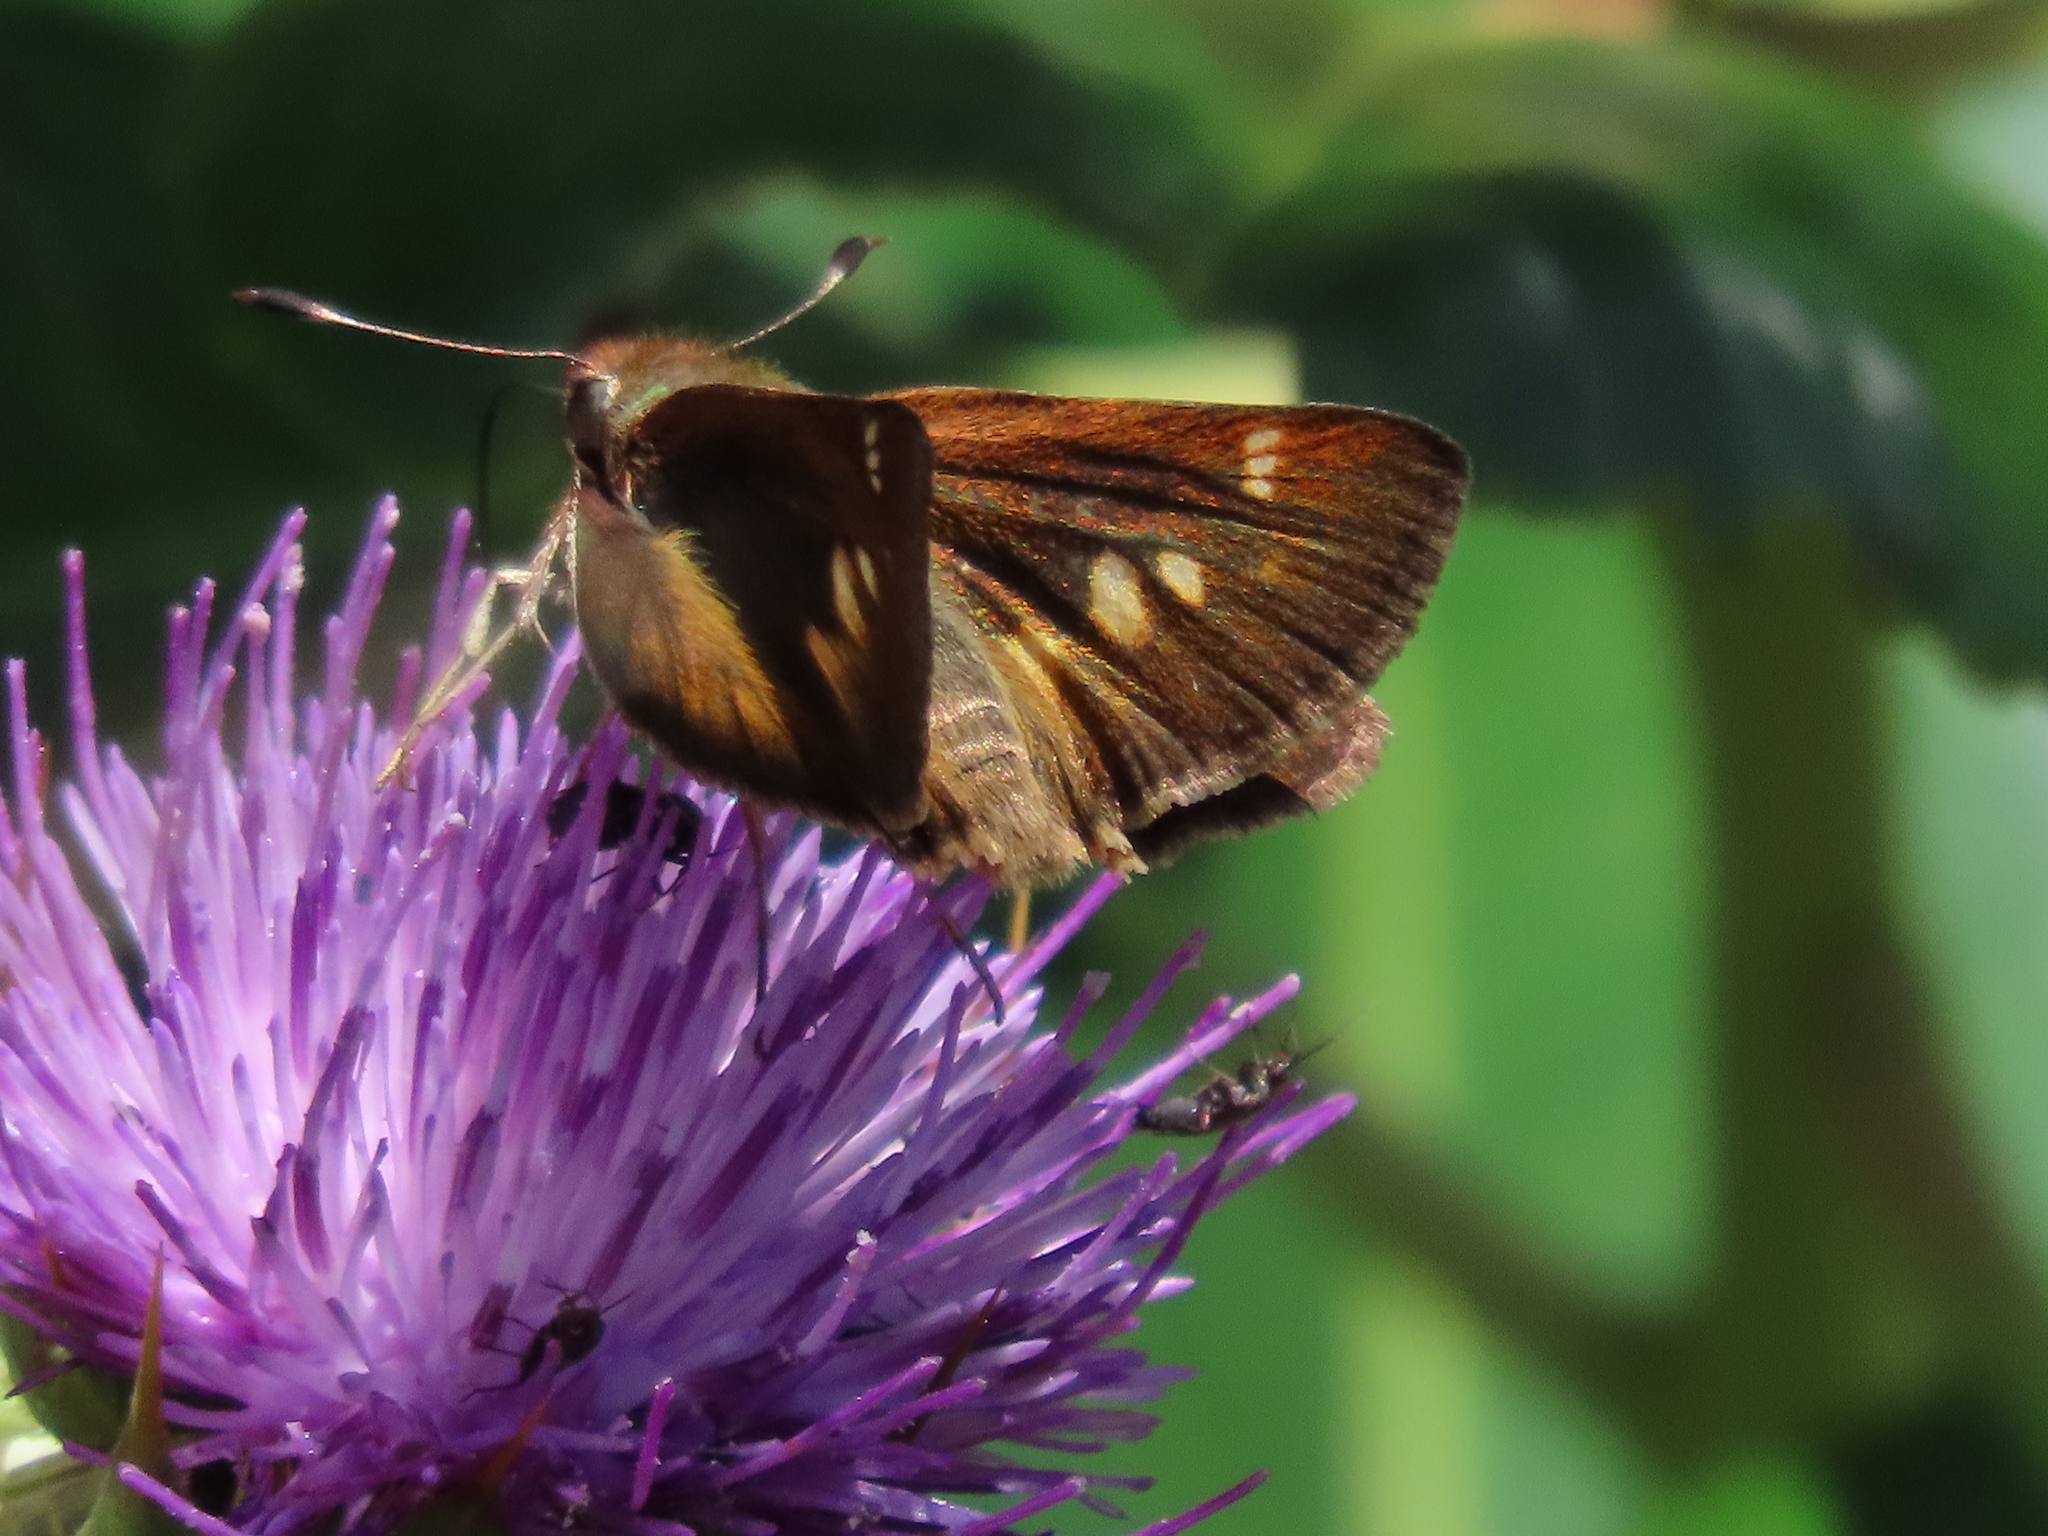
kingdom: Animalia
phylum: Arthropoda
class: Insecta
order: Lepidoptera
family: Hesperiidae
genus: Lon
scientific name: Lon melane
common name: Umber skipper
